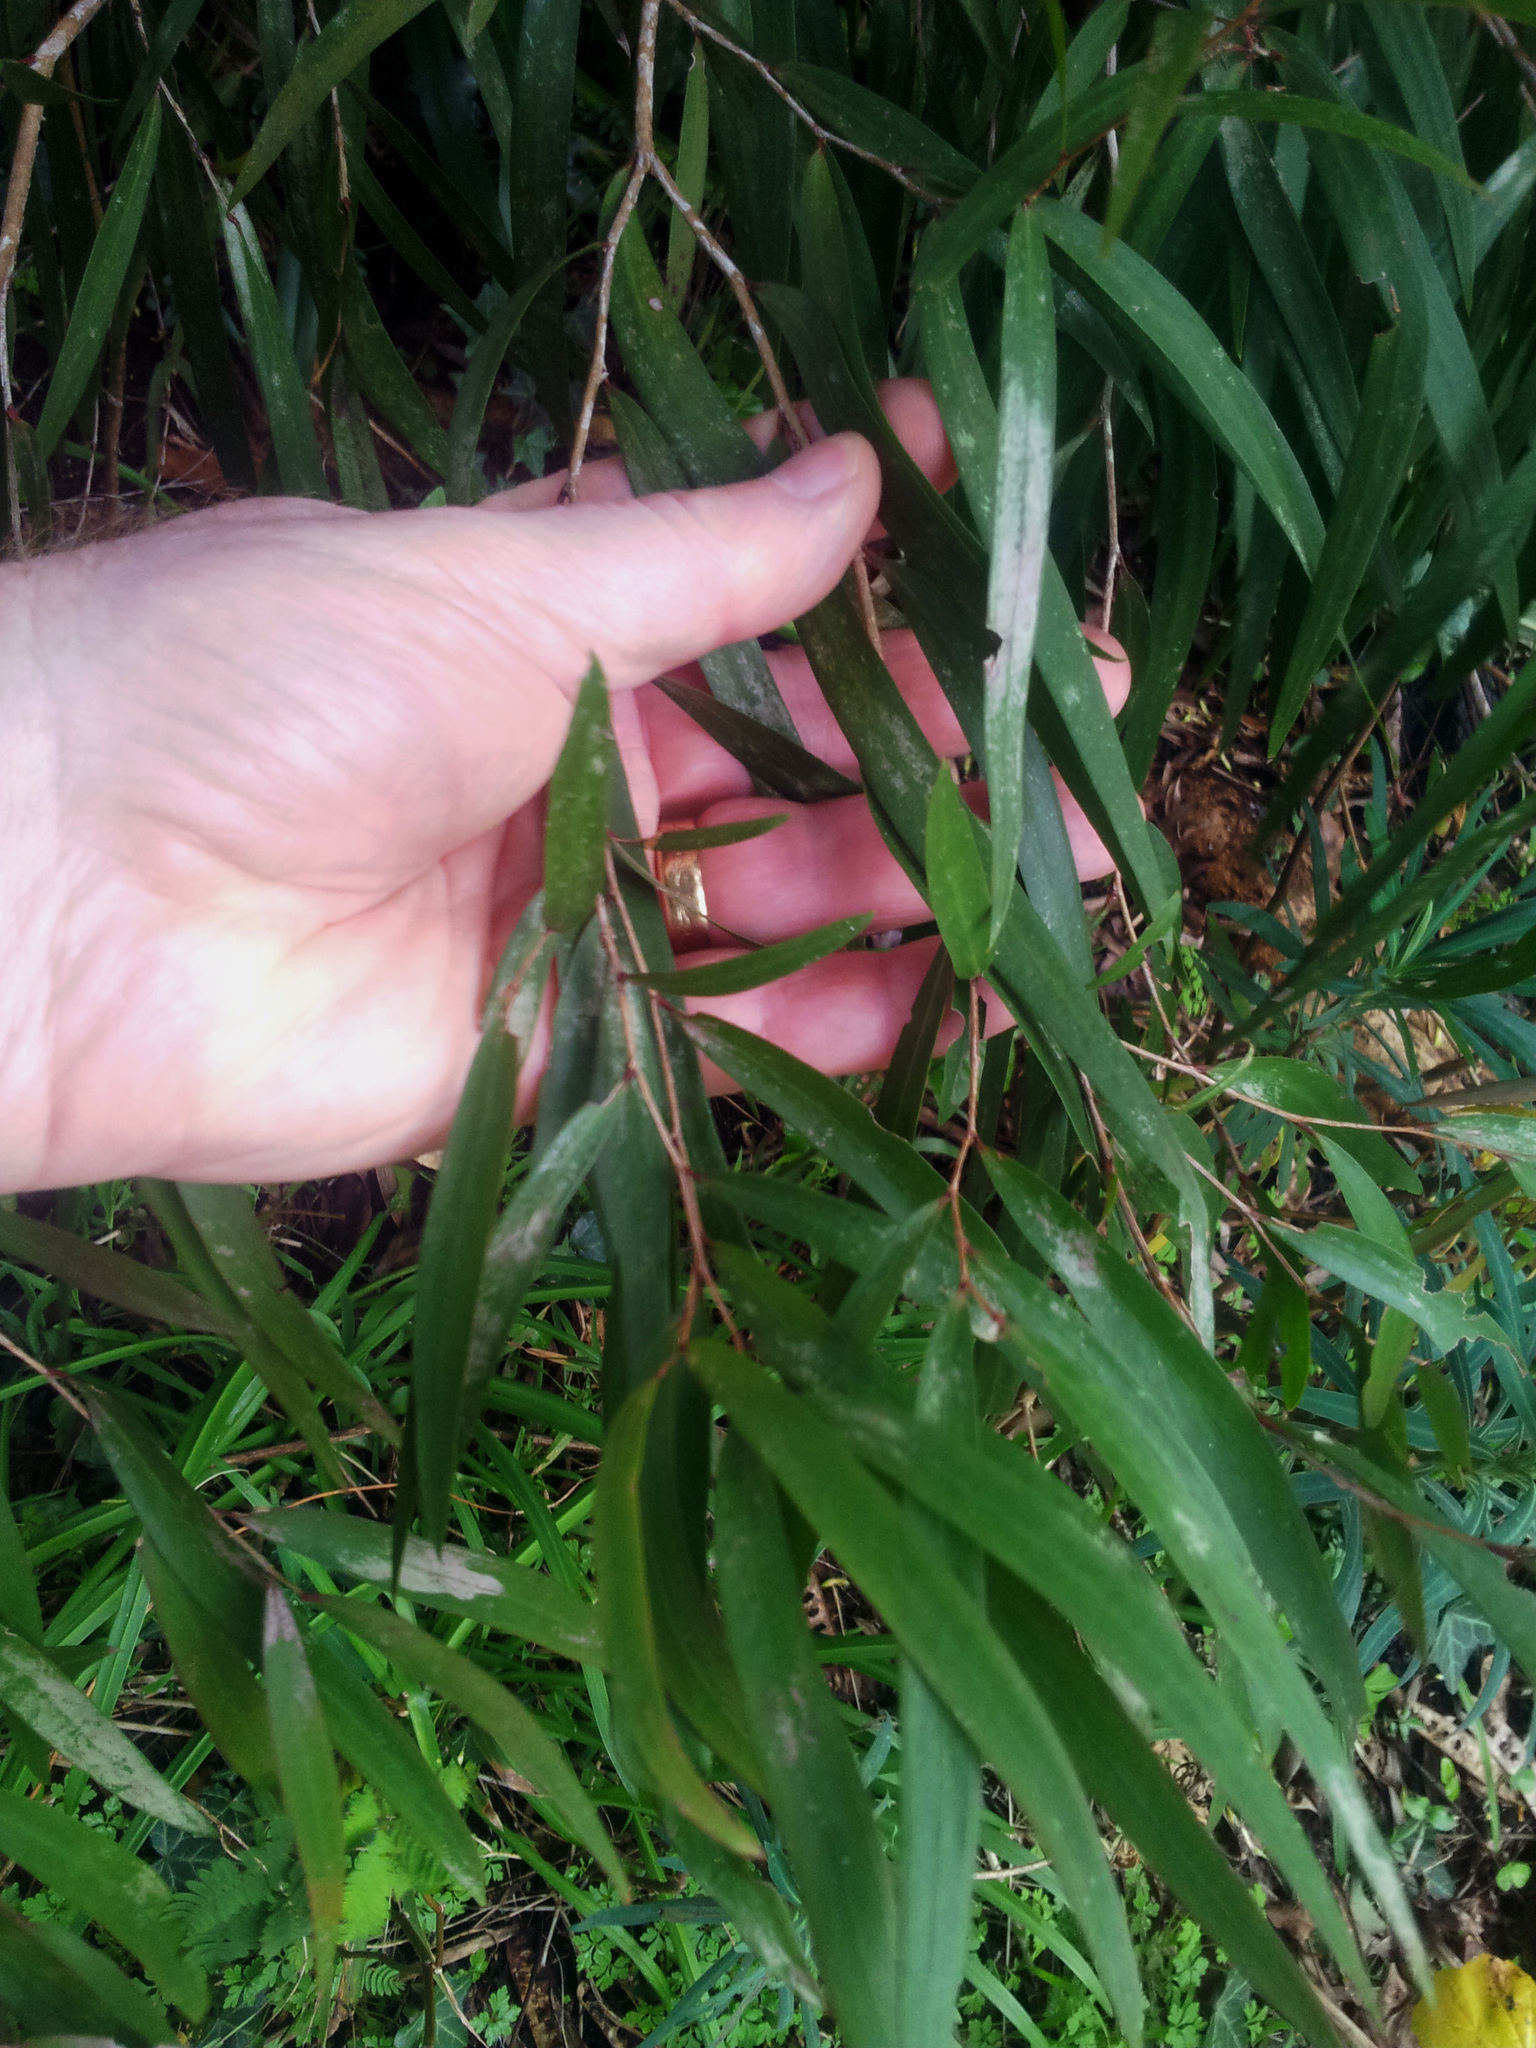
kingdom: Plantae
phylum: Tracheophyta
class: Magnoliopsida
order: Myrtales
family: Myrtaceae
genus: Agonis
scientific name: Agonis flexuosa
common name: Willow myrtle
